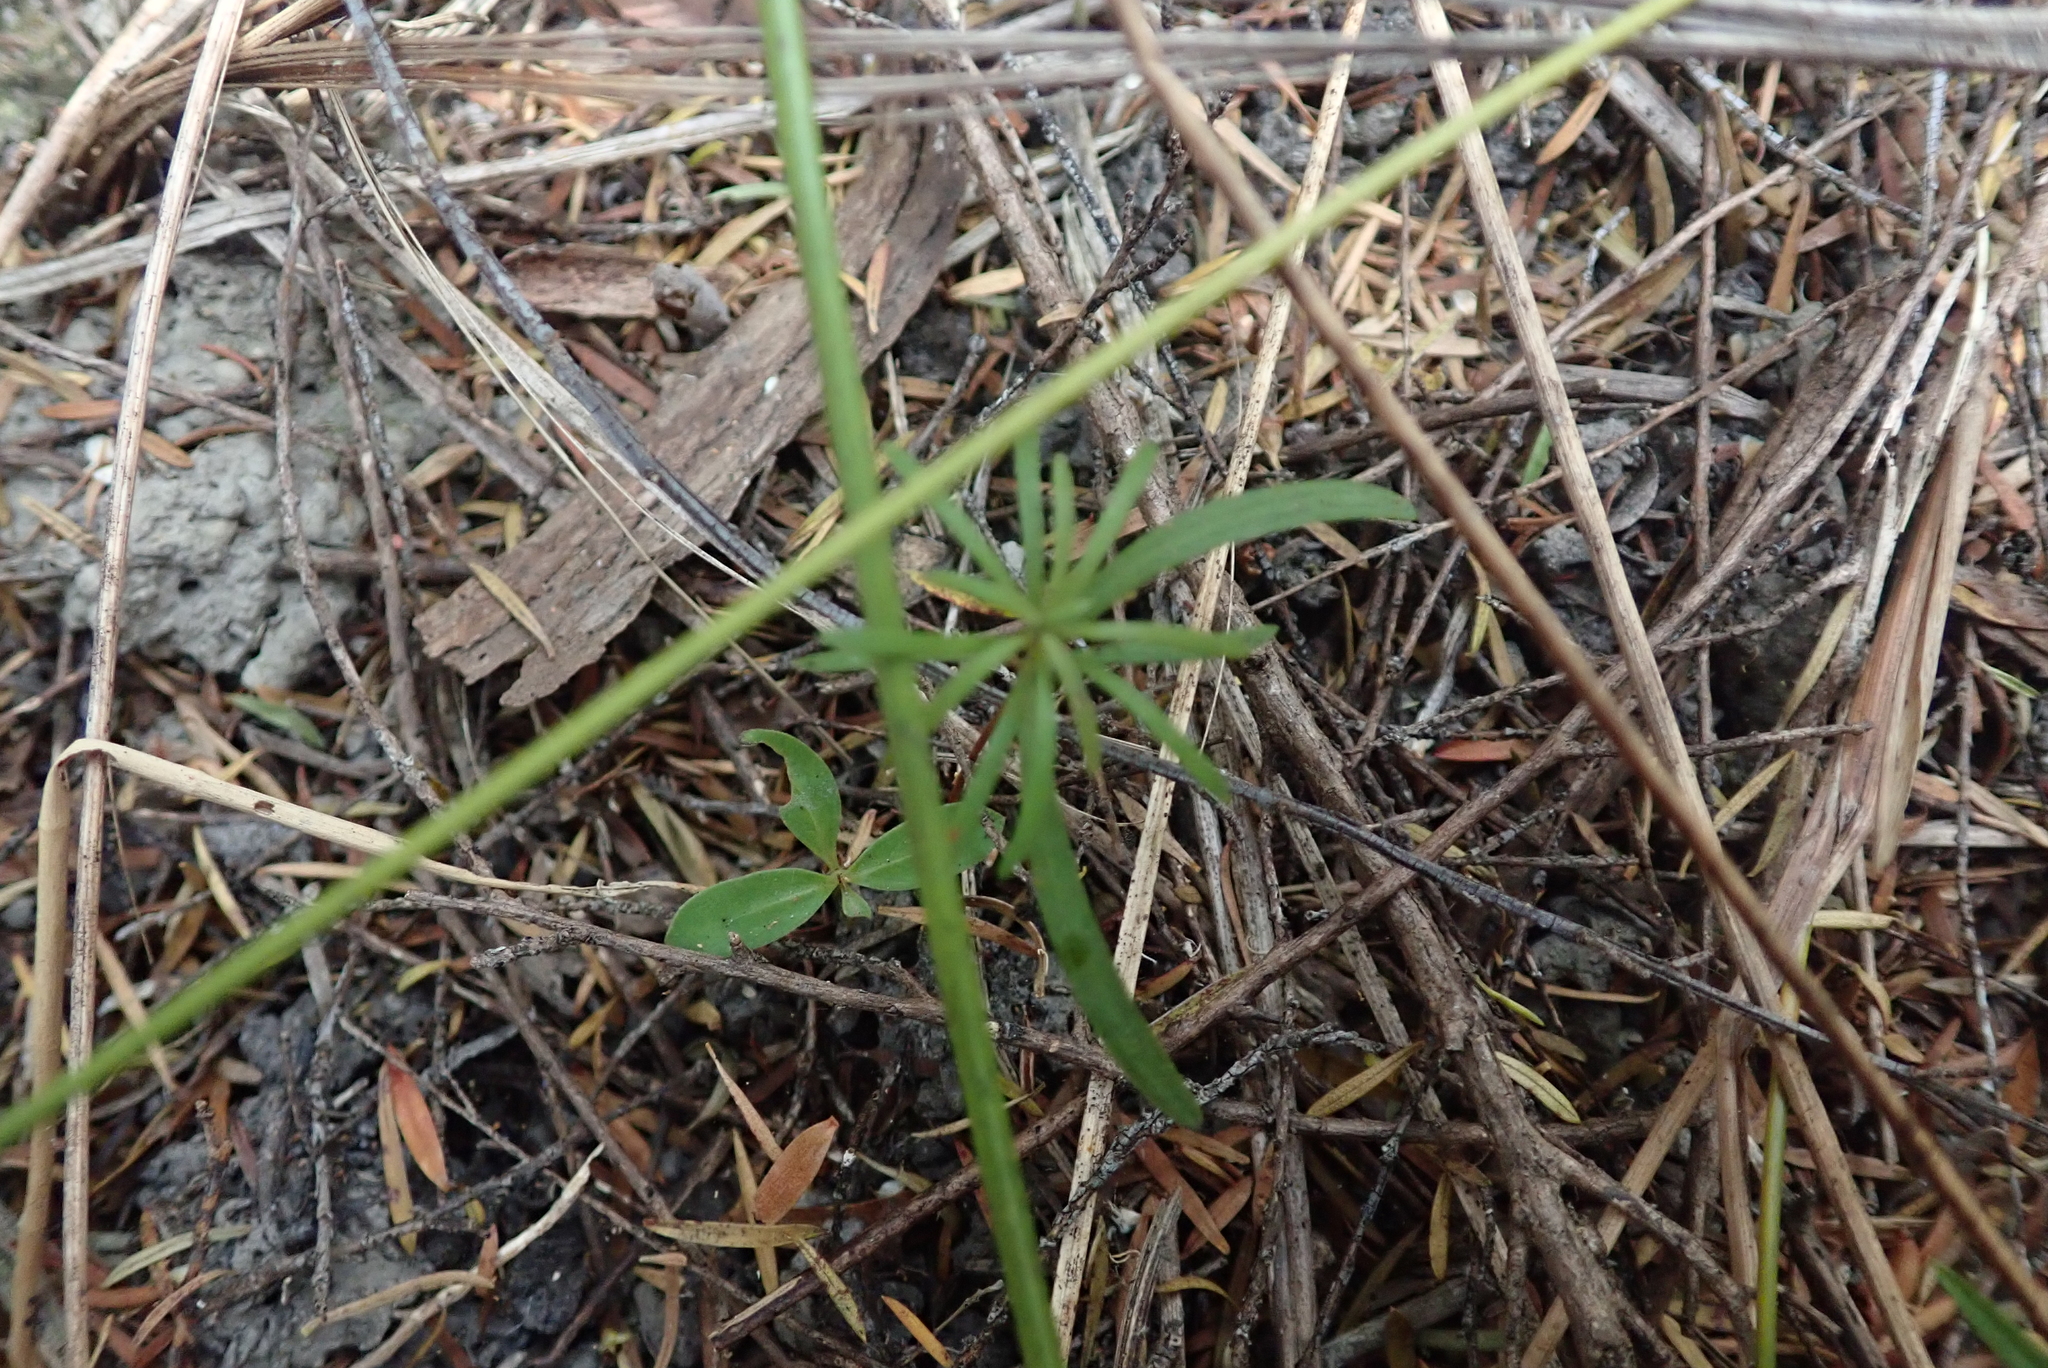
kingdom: Plantae
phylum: Tracheophyta
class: Pinopsida
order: Pinales
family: Podocarpaceae
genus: Podocarpus
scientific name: Podocarpus totara
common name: Totara
